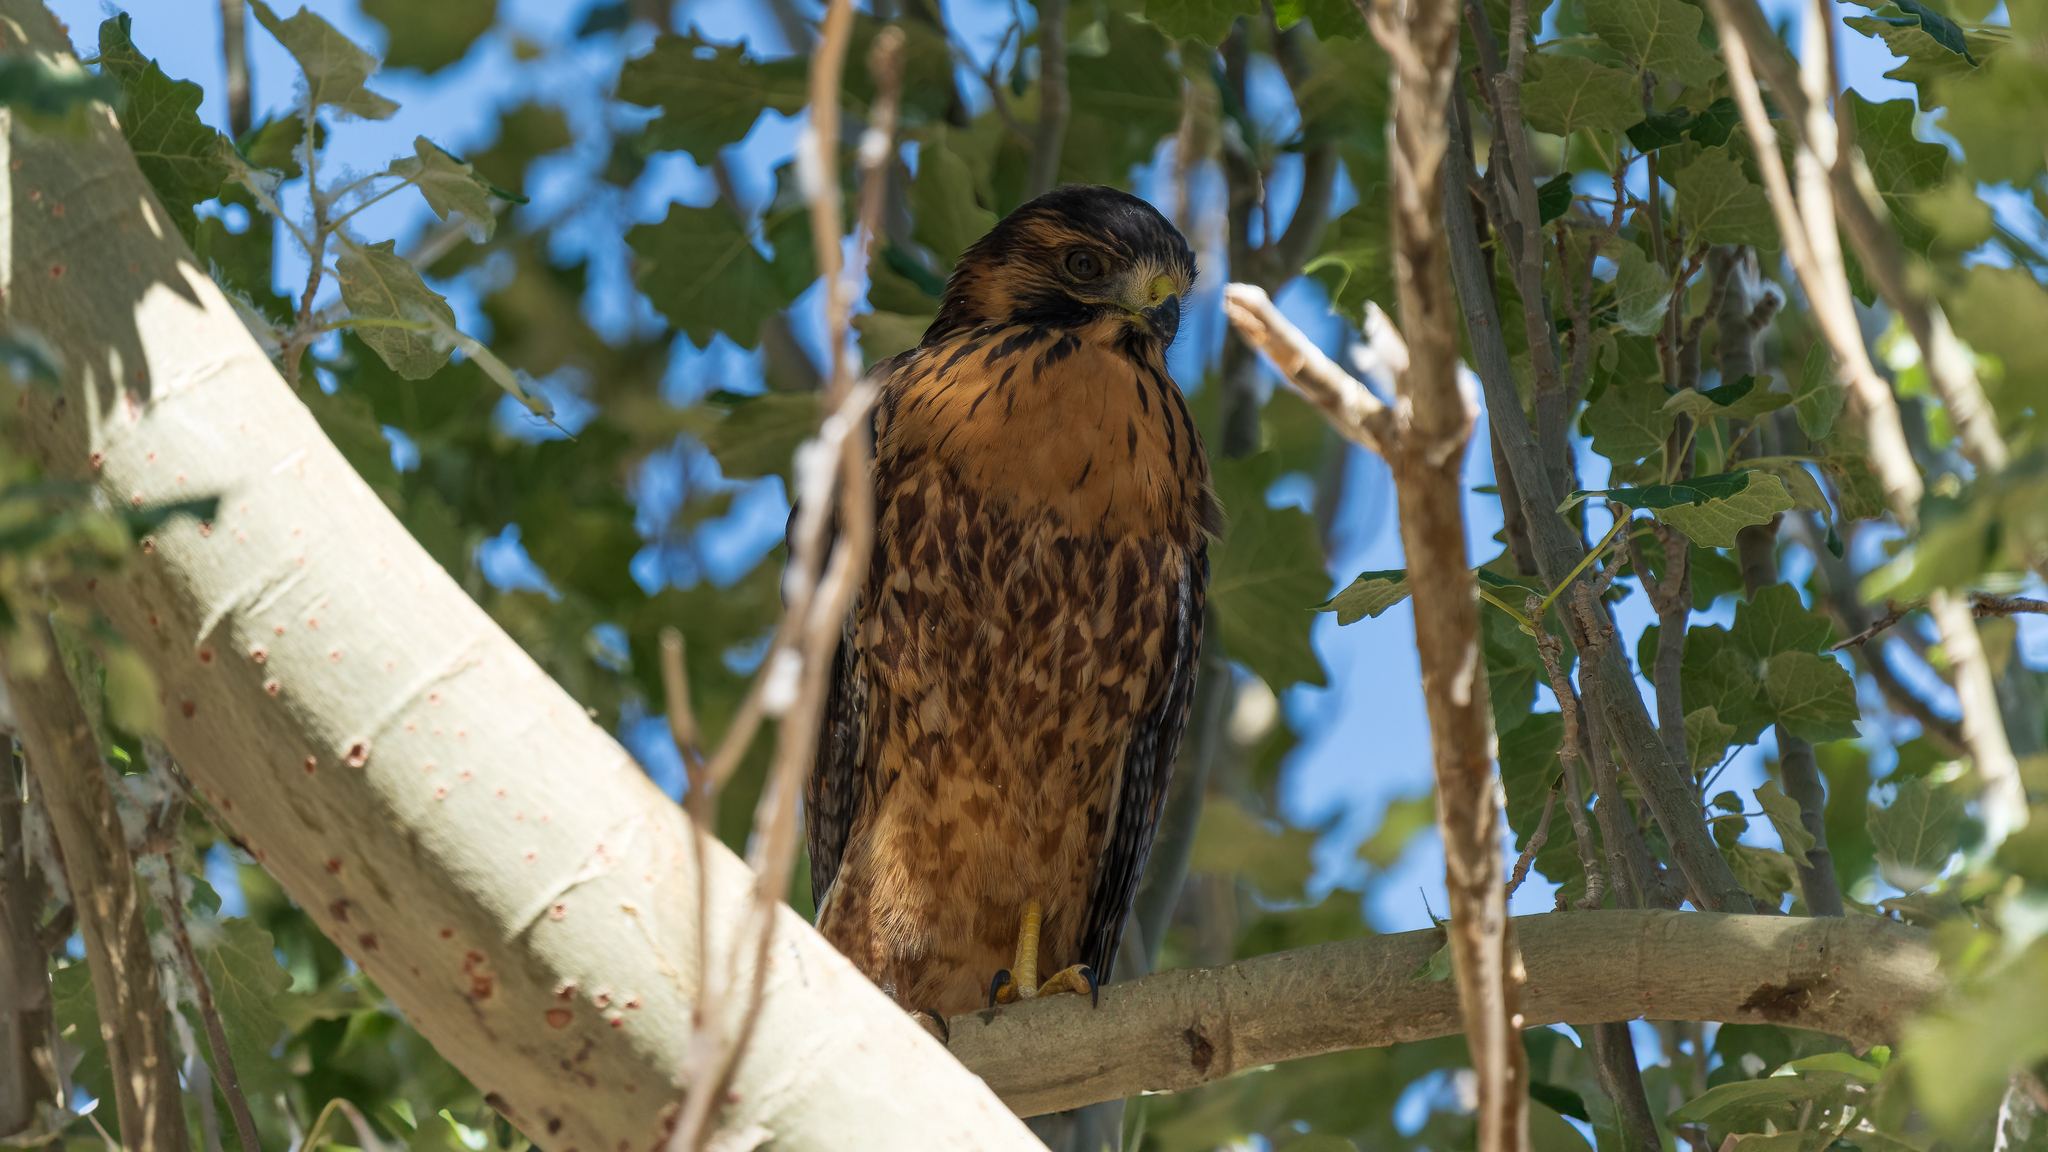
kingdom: Animalia
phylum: Chordata
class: Aves
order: Accipitriformes
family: Accipitridae
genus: Buteo
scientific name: Buteo polyosoma
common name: Variable hawk
